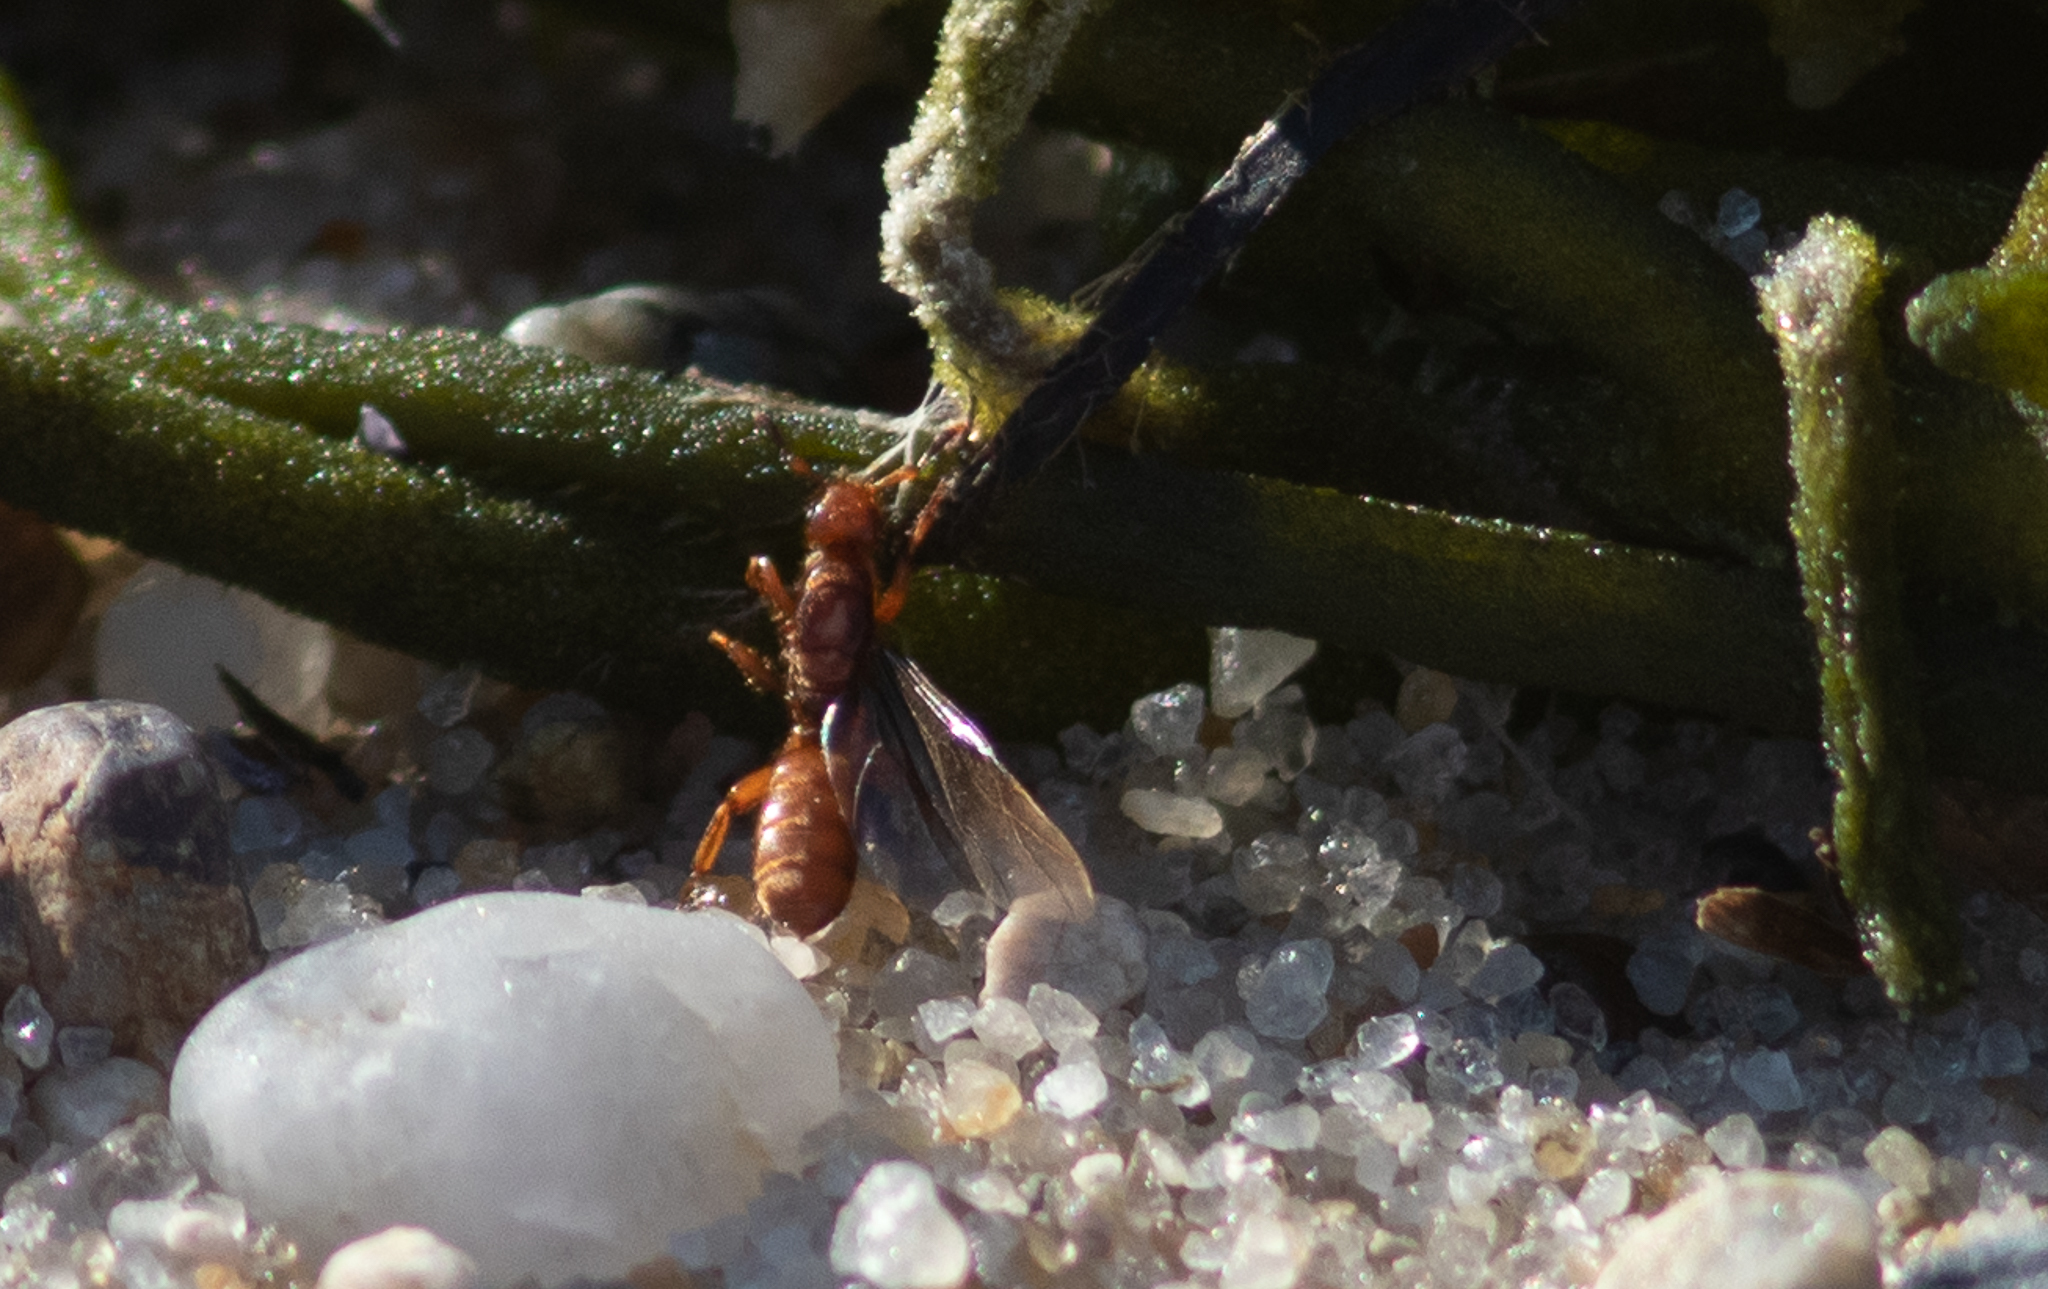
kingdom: Animalia
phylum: Arthropoda
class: Insecta
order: Hymenoptera
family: Formicidae
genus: Acanthomyops
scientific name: Acanthomyops latipes
